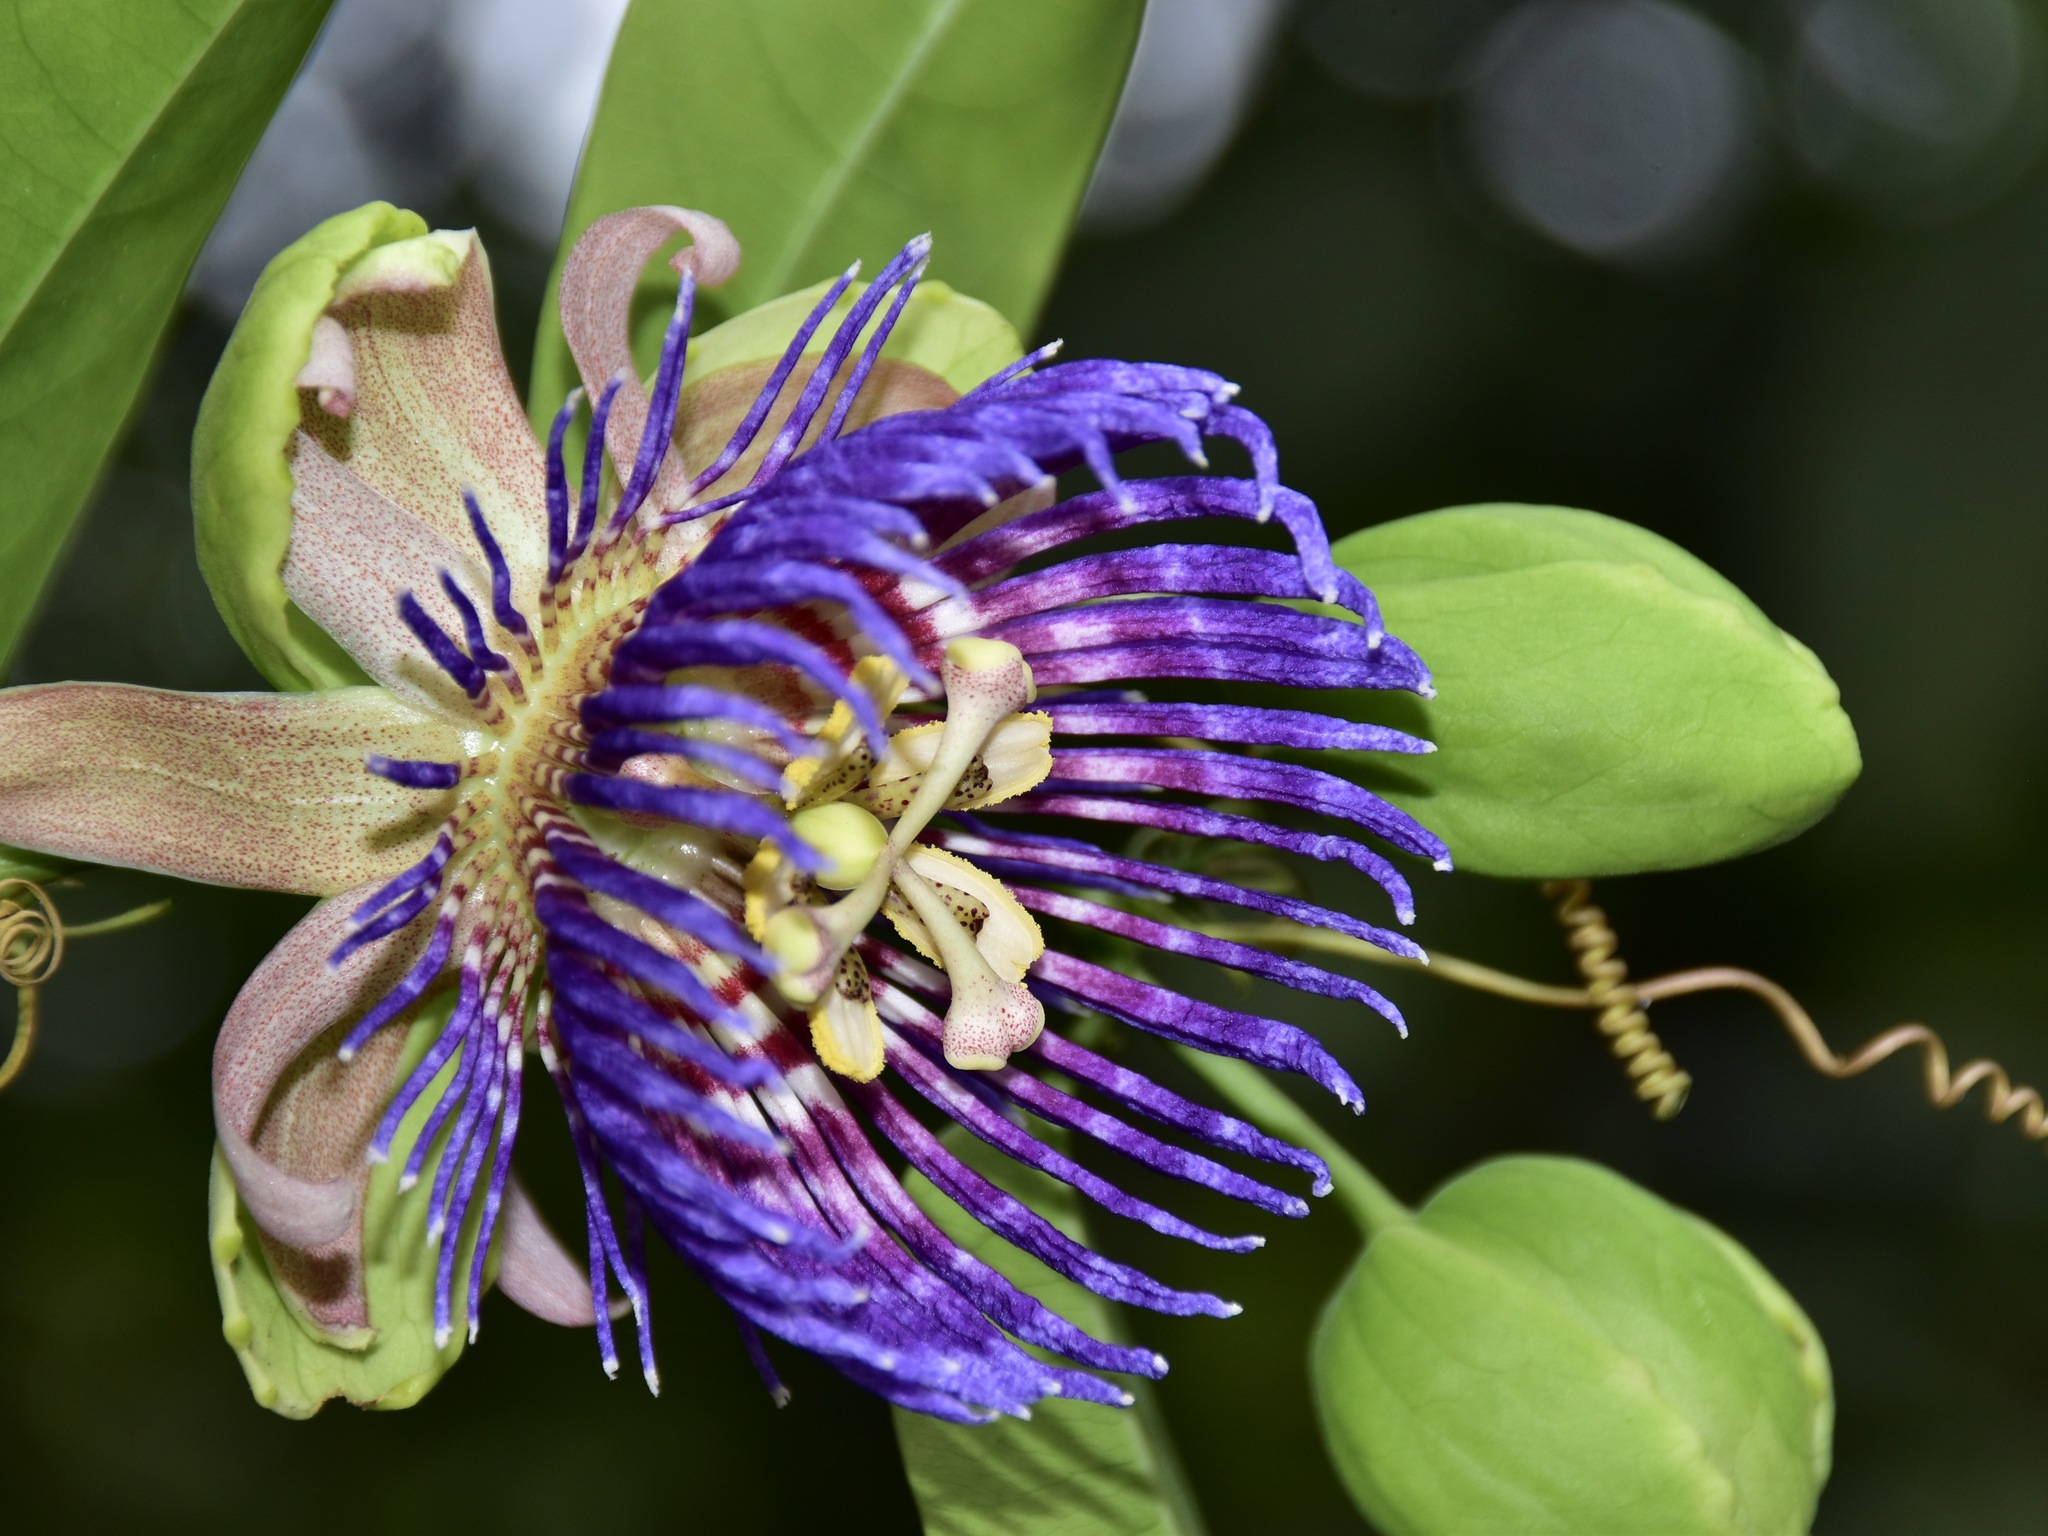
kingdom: Plantae
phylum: Tracheophyta
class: Magnoliopsida
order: Malpighiales
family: Passifloraceae
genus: Passiflora
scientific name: Passiflora laurifolia
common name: Bell apple
